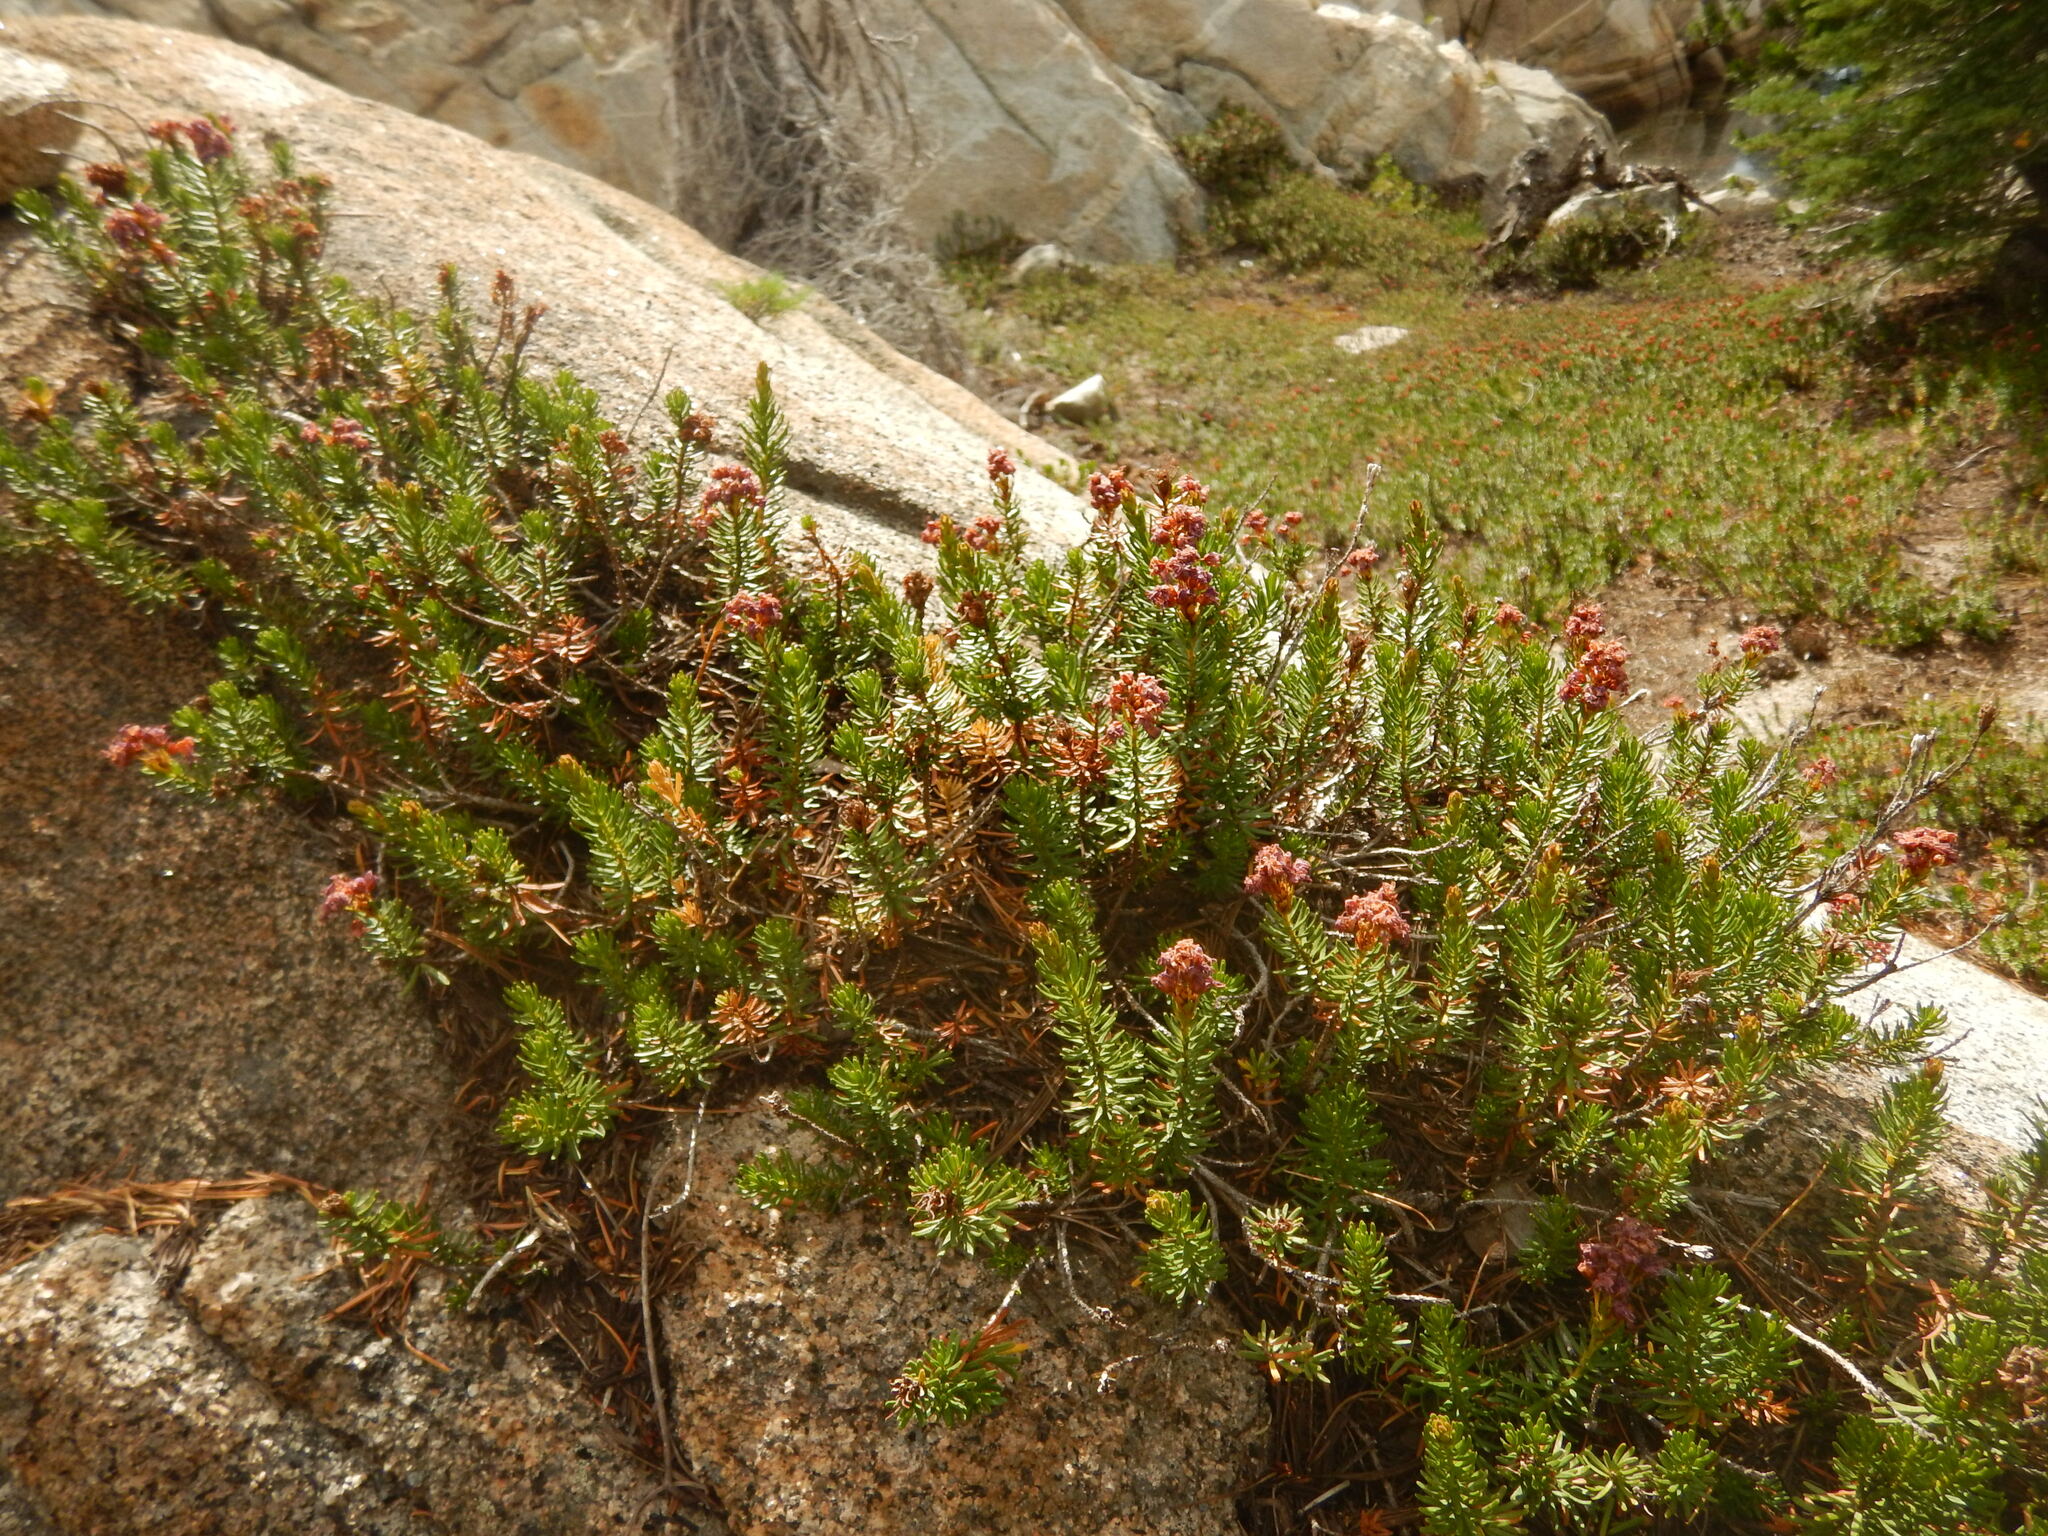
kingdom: Plantae
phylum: Tracheophyta
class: Magnoliopsida
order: Ericales
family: Ericaceae
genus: Phyllodoce
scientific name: Phyllodoce breweri
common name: Brewer's mountain-heather
